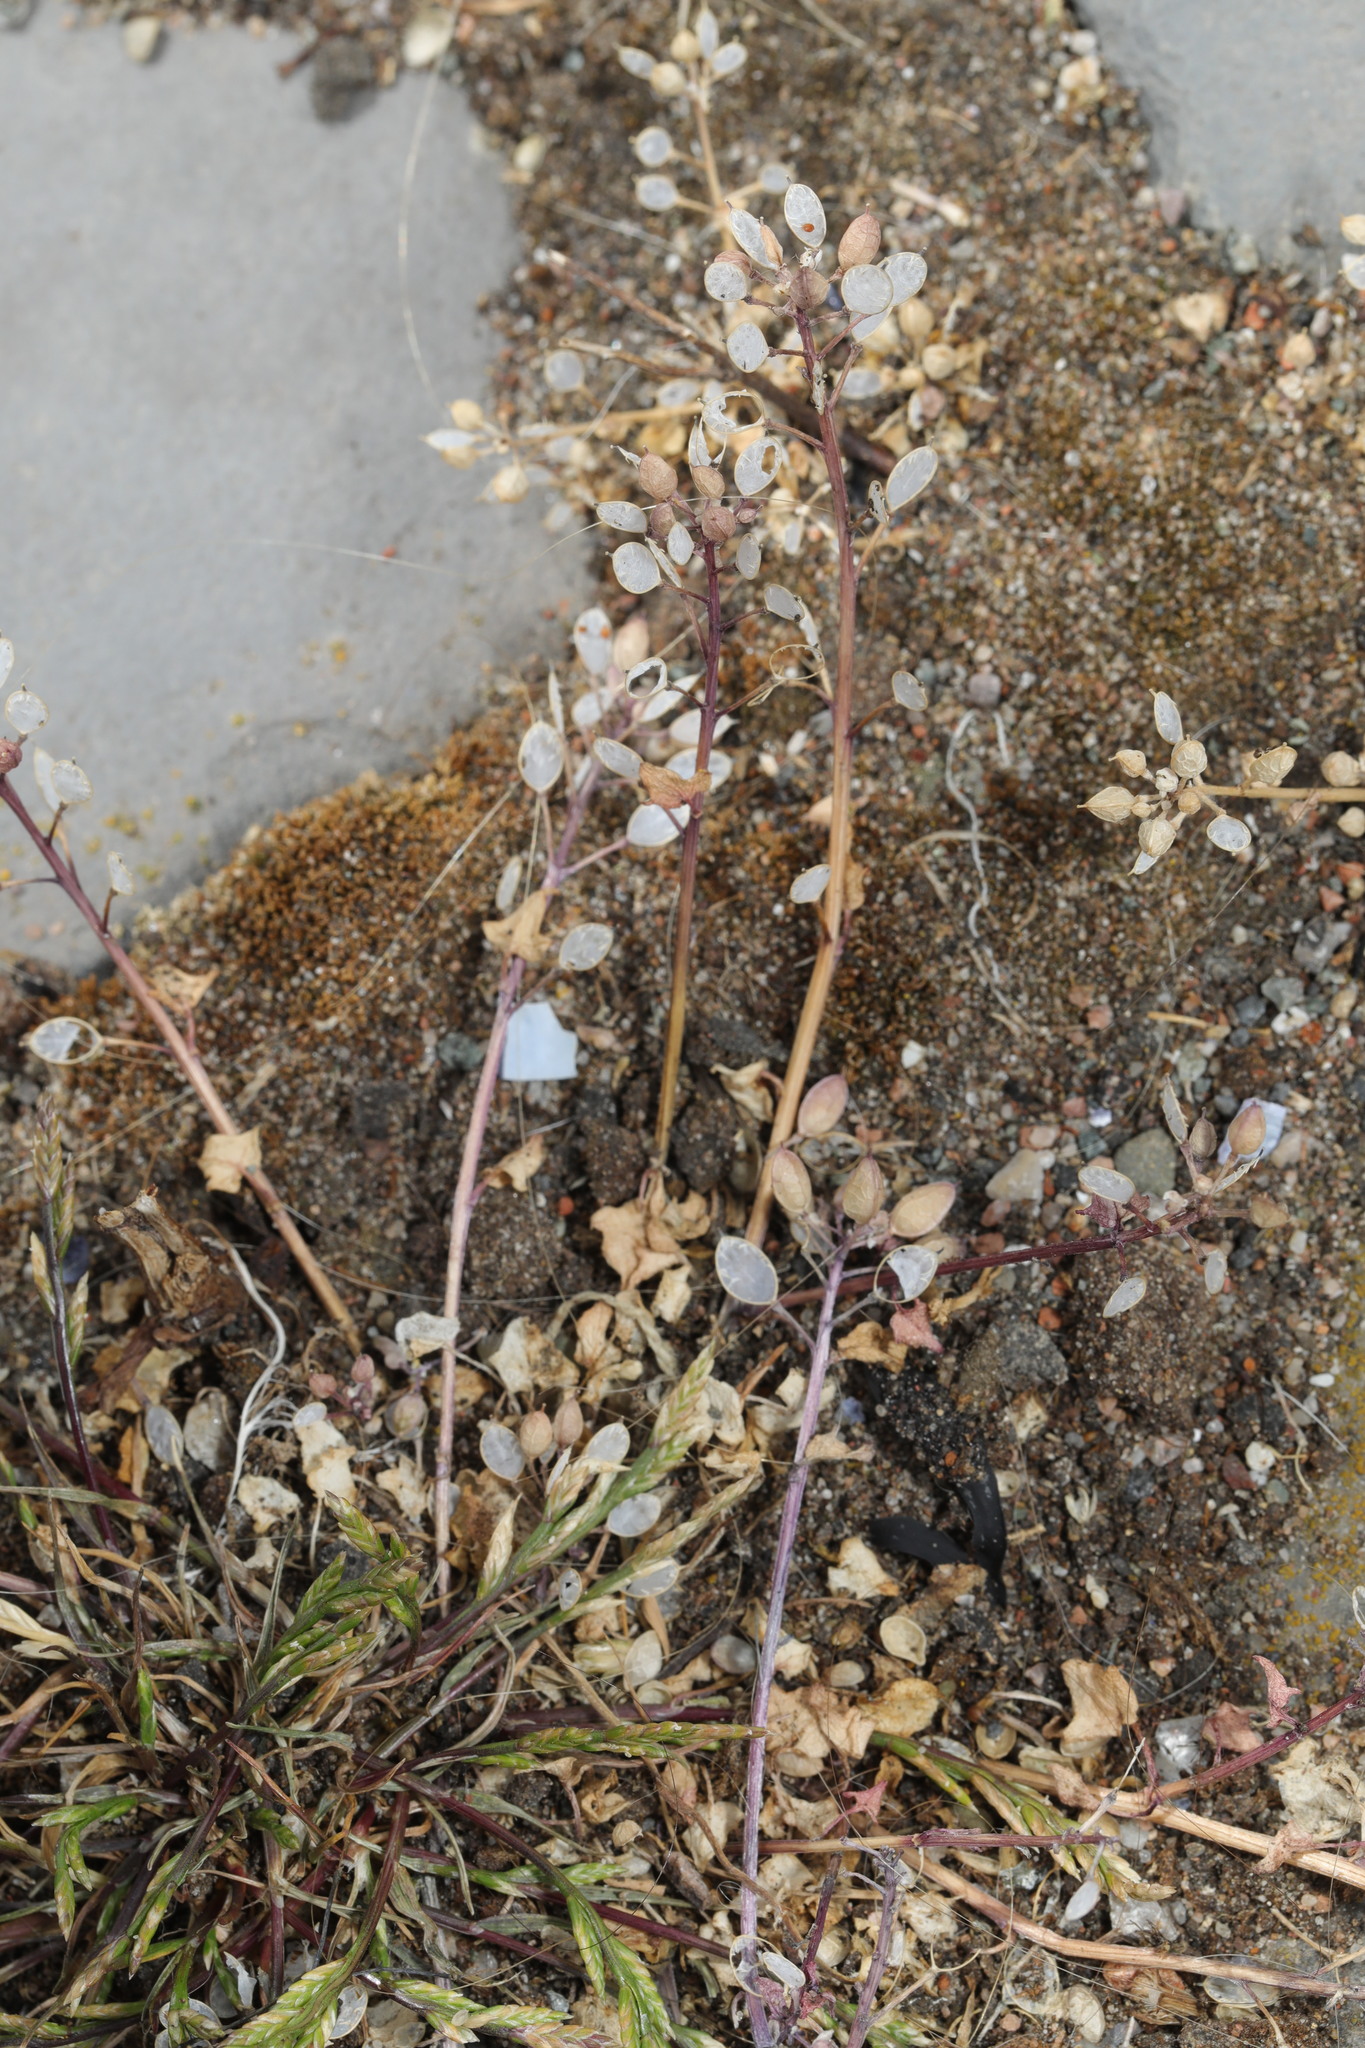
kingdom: Plantae
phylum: Tracheophyta
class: Magnoliopsida
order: Brassicales
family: Brassicaceae
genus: Cochlearia
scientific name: Cochlearia danica
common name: Early scurvygrass
